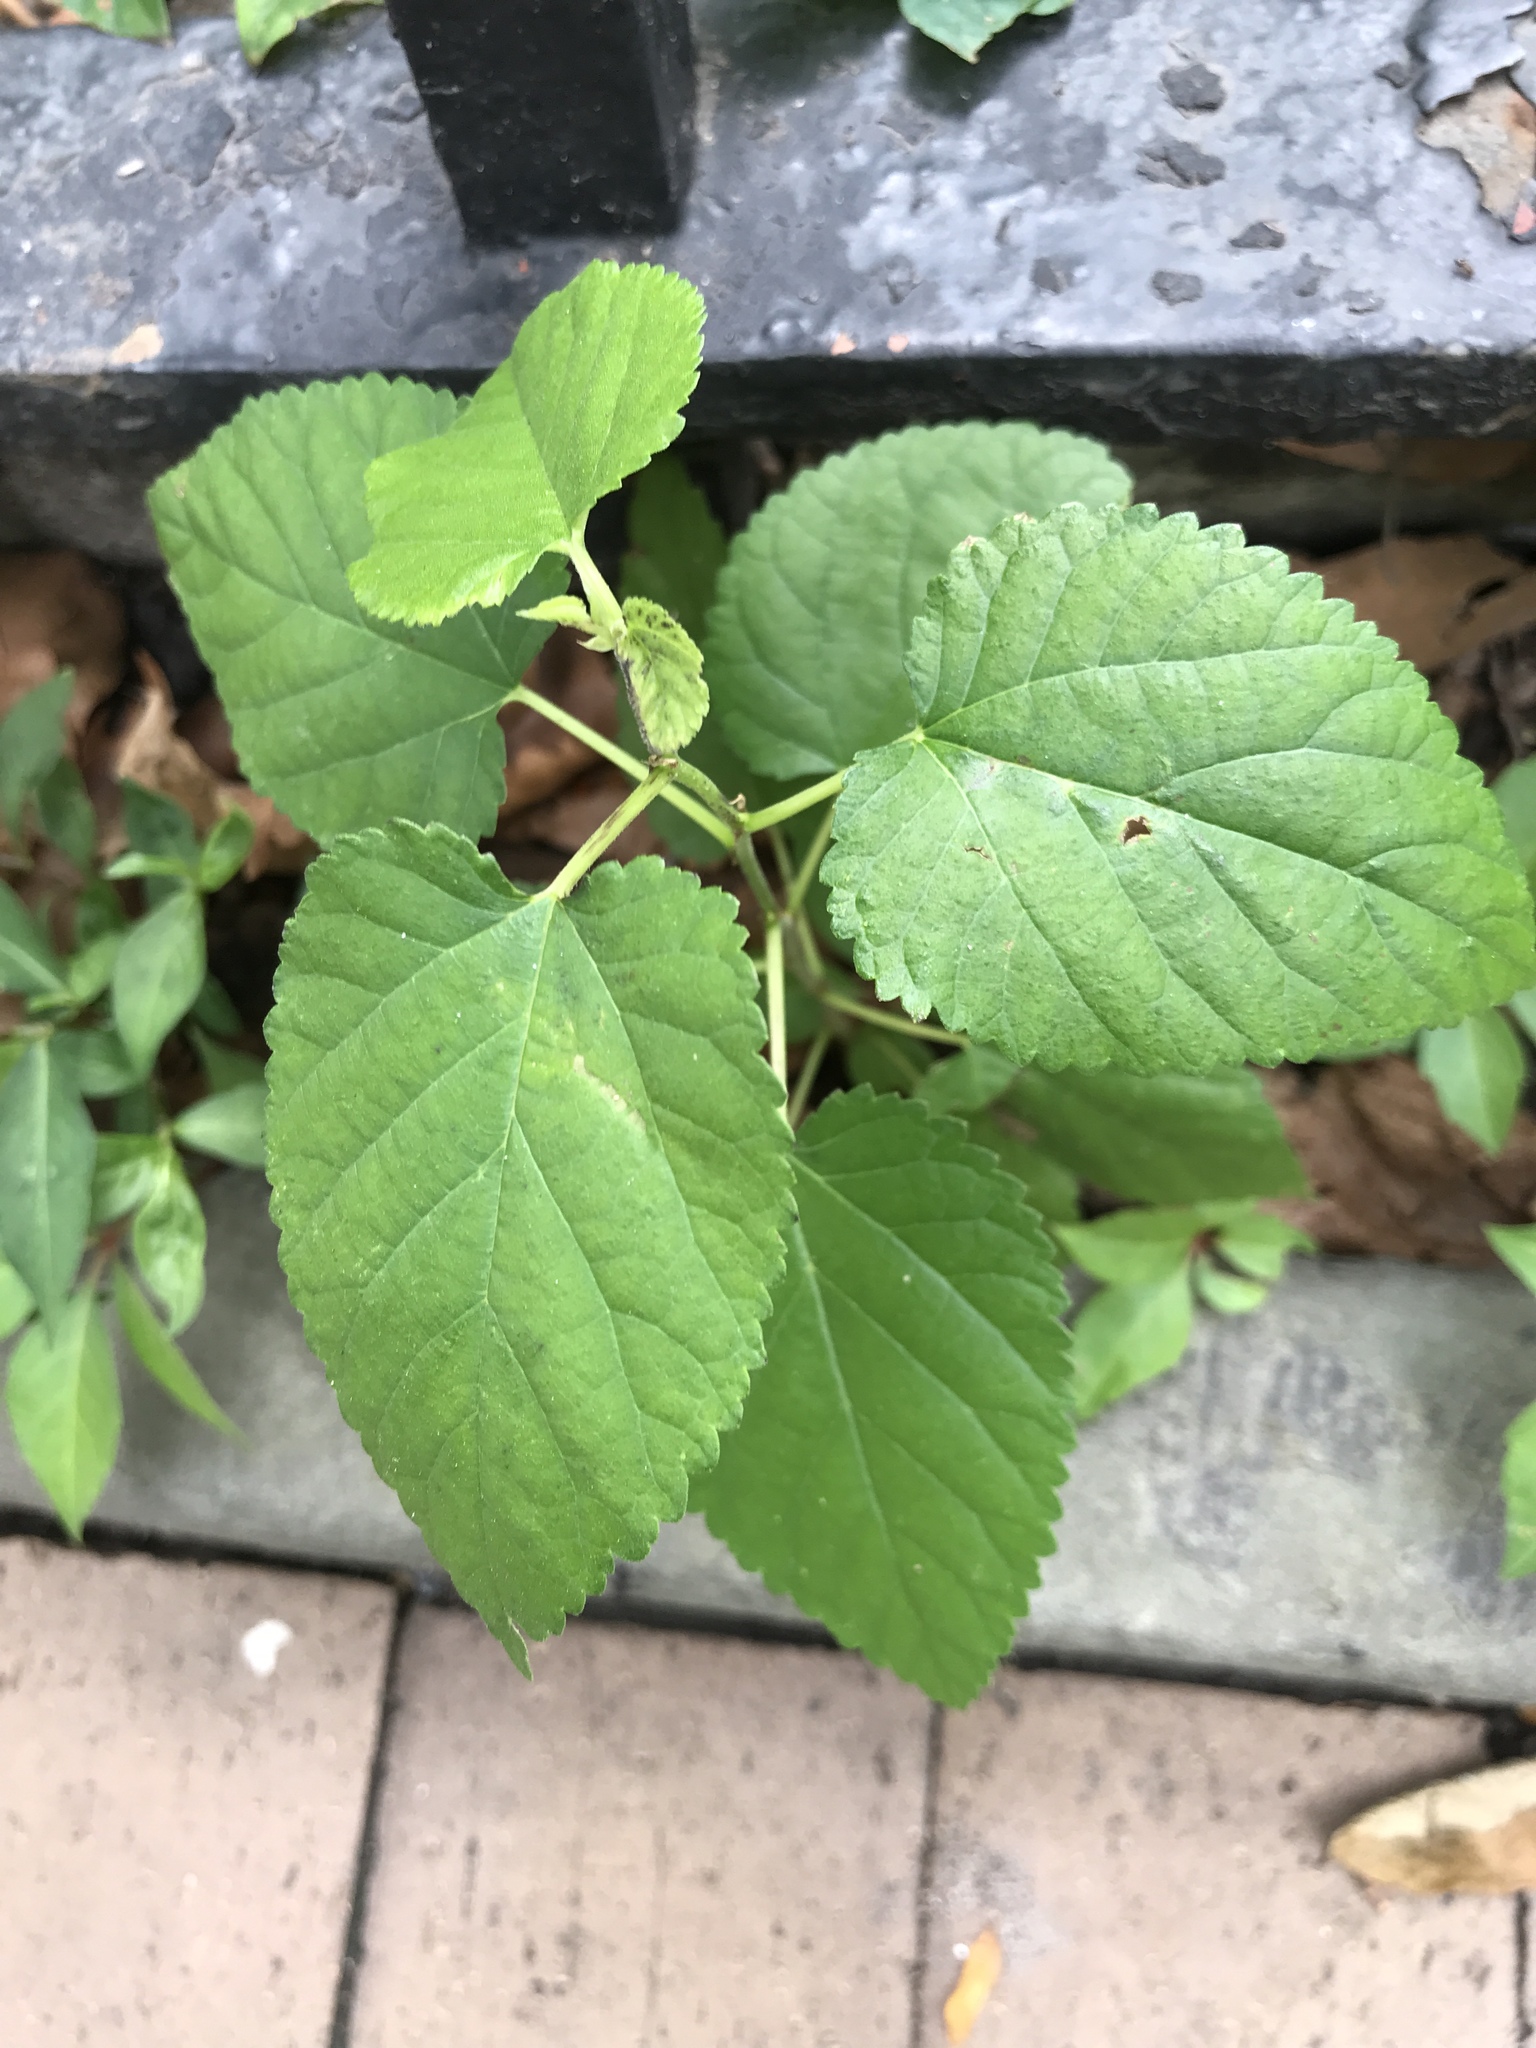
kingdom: Plantae
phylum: Tracheophyta
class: Magnoliopsida
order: Rosales
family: Moraceae
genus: Fatoua
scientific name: Fatoua villosa
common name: Hairy crabweed
